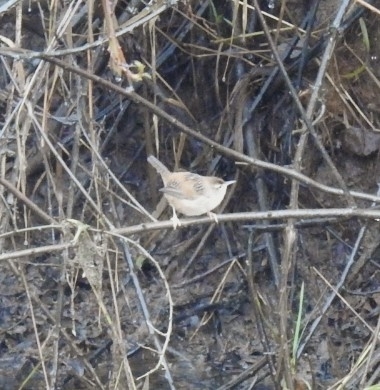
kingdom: Animalia
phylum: Chordata
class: Aves
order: Passeriformes
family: Troglodytidae
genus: Cistothorus
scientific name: Cistothorus palustris
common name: Marsh wren
